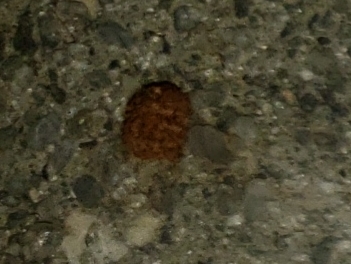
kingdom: Animalia
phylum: Arthropoda
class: Insecta
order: Lepidoptera
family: Saturniidae
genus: Anisota
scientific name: Anisota virginiensis
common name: Pink striped oakworm moth
